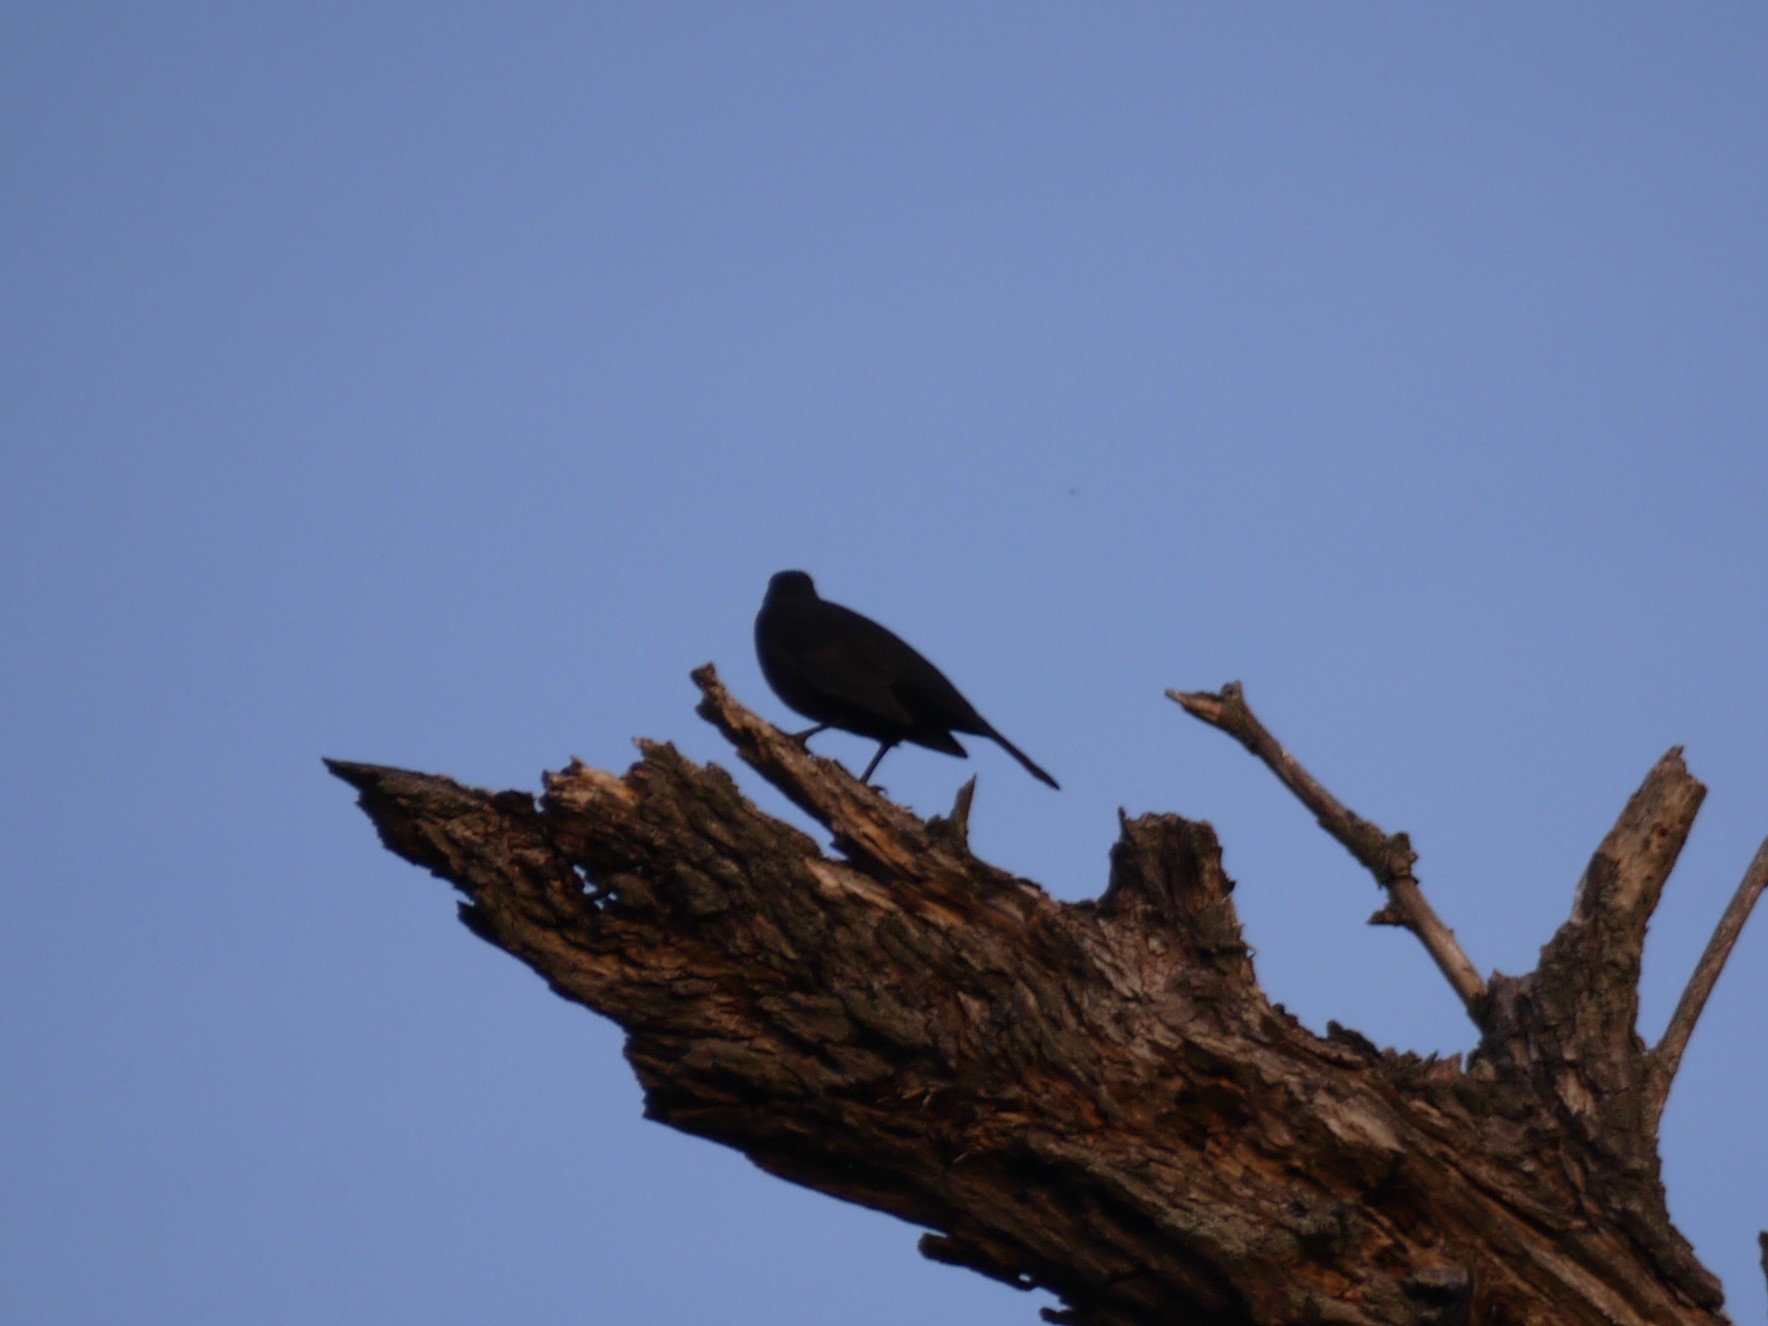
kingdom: Animalia
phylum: Chordata
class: Aves
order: Passeriformes
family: Turdidae
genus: Turdus
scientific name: Turdus merula
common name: Common blackbird
